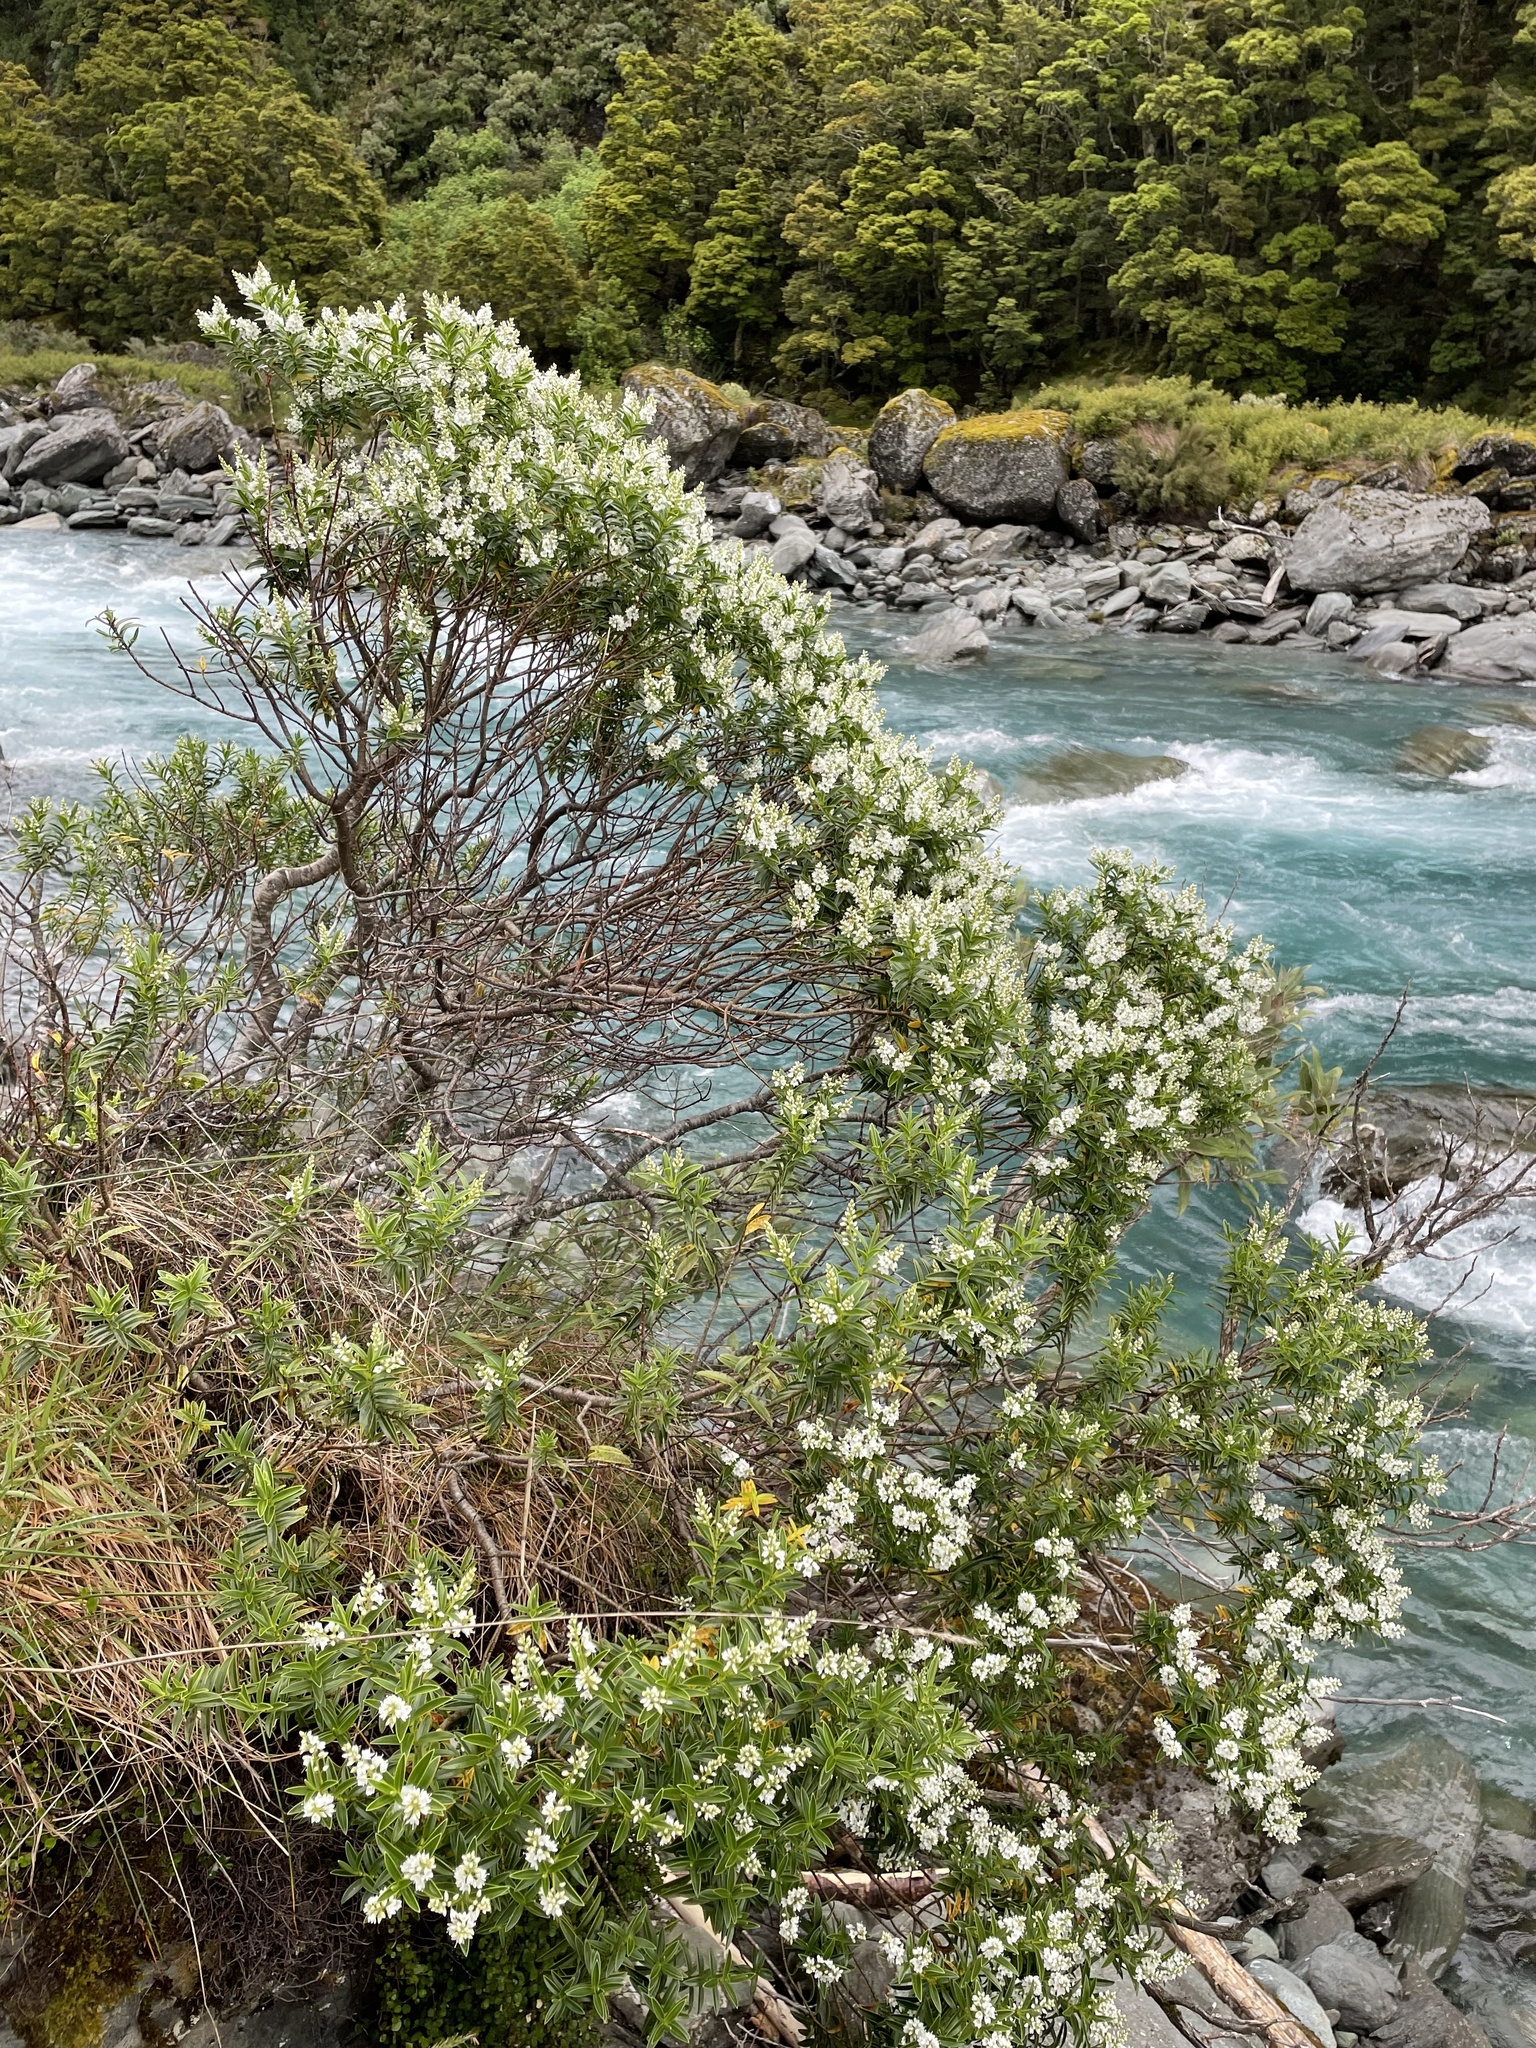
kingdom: Plantae
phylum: Tracheophyta
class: Magnoliopsida
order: Lamiales
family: Plantaginaceae
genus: Veronica
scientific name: Veronica subalpina
